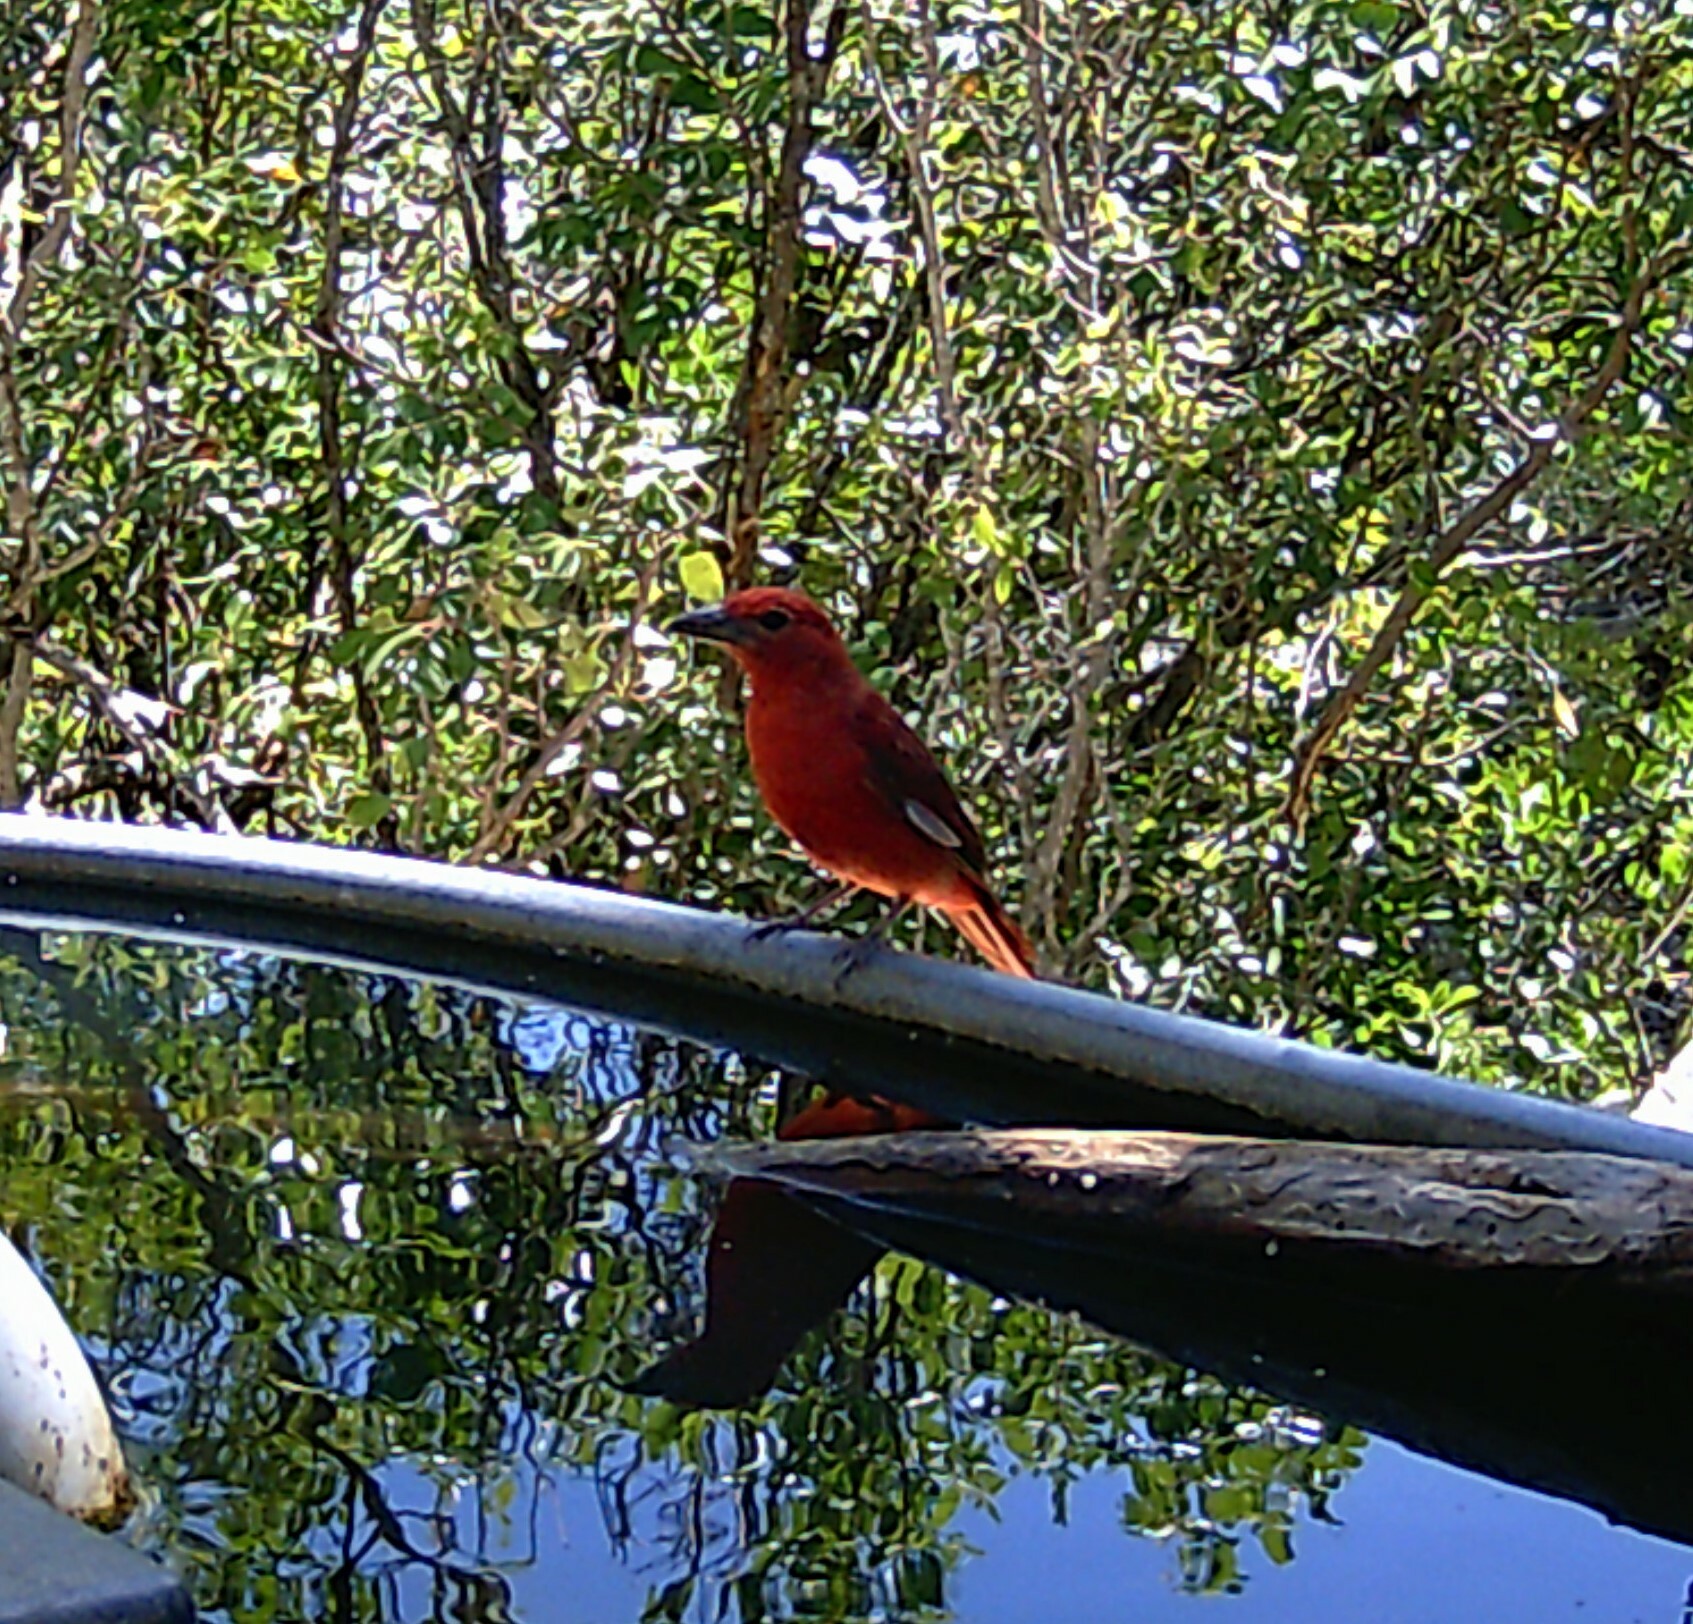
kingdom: Animalia
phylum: Chordata
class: Aves
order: Passeriformes
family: Cardinalidae
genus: Piranga
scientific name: Piranga rubra
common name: Summer tanager
